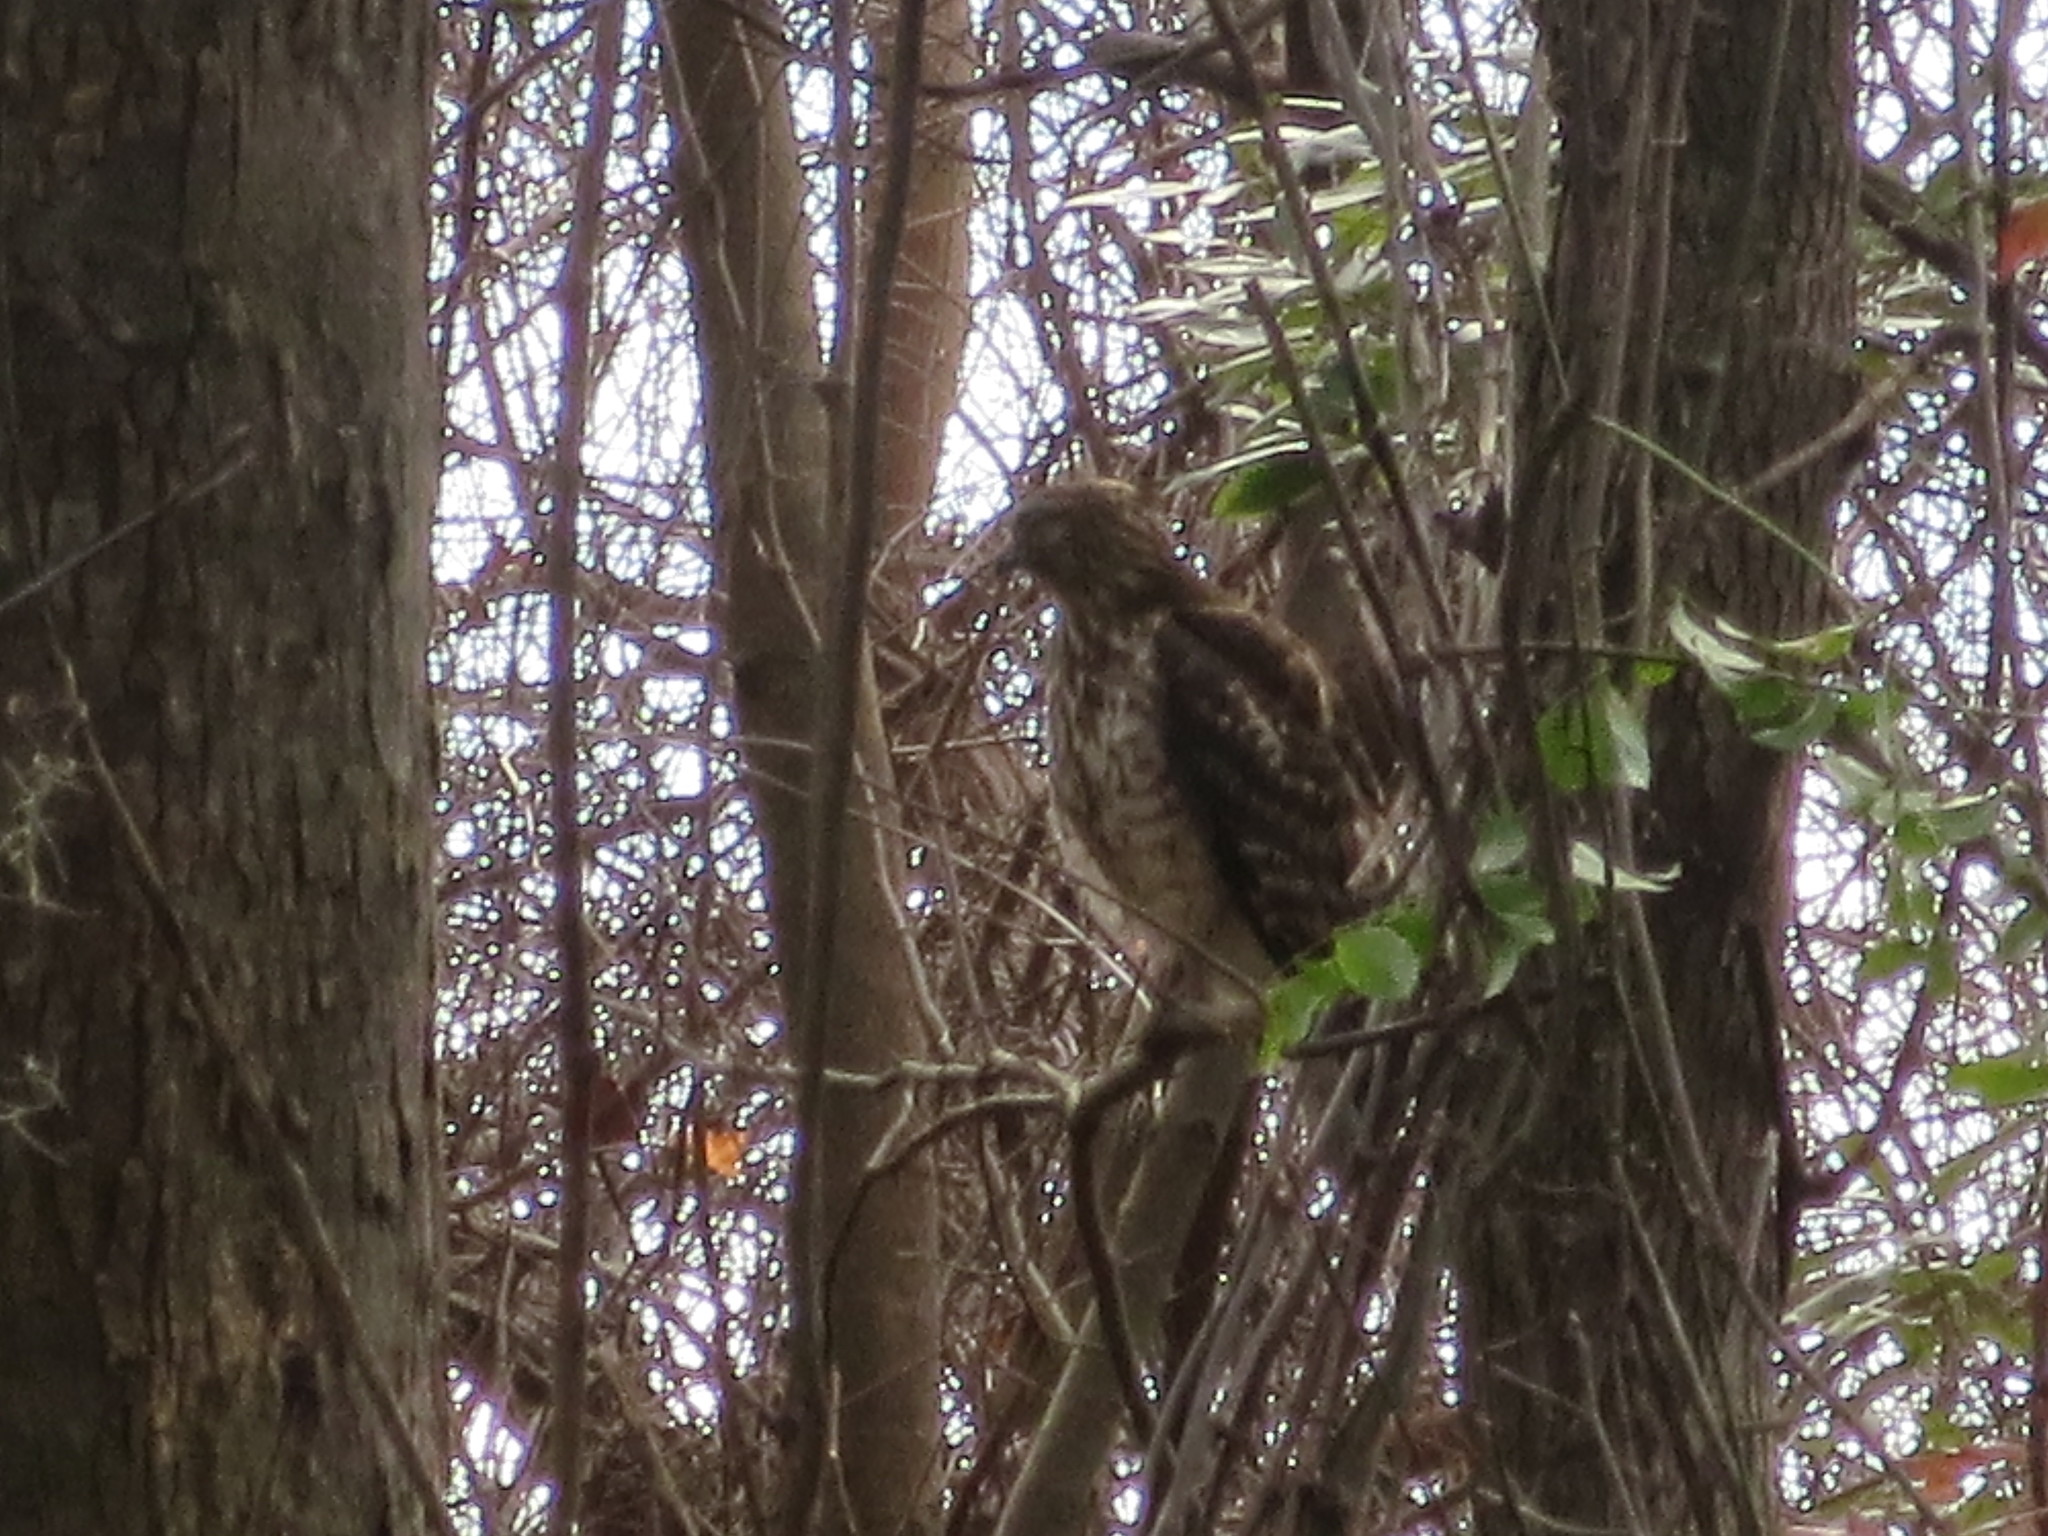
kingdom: Animalia
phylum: Chordata
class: Aves
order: Accipitriformes
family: Accipitridae
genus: Buteo
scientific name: Buteo lineatus
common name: Red-shouldered hawk
